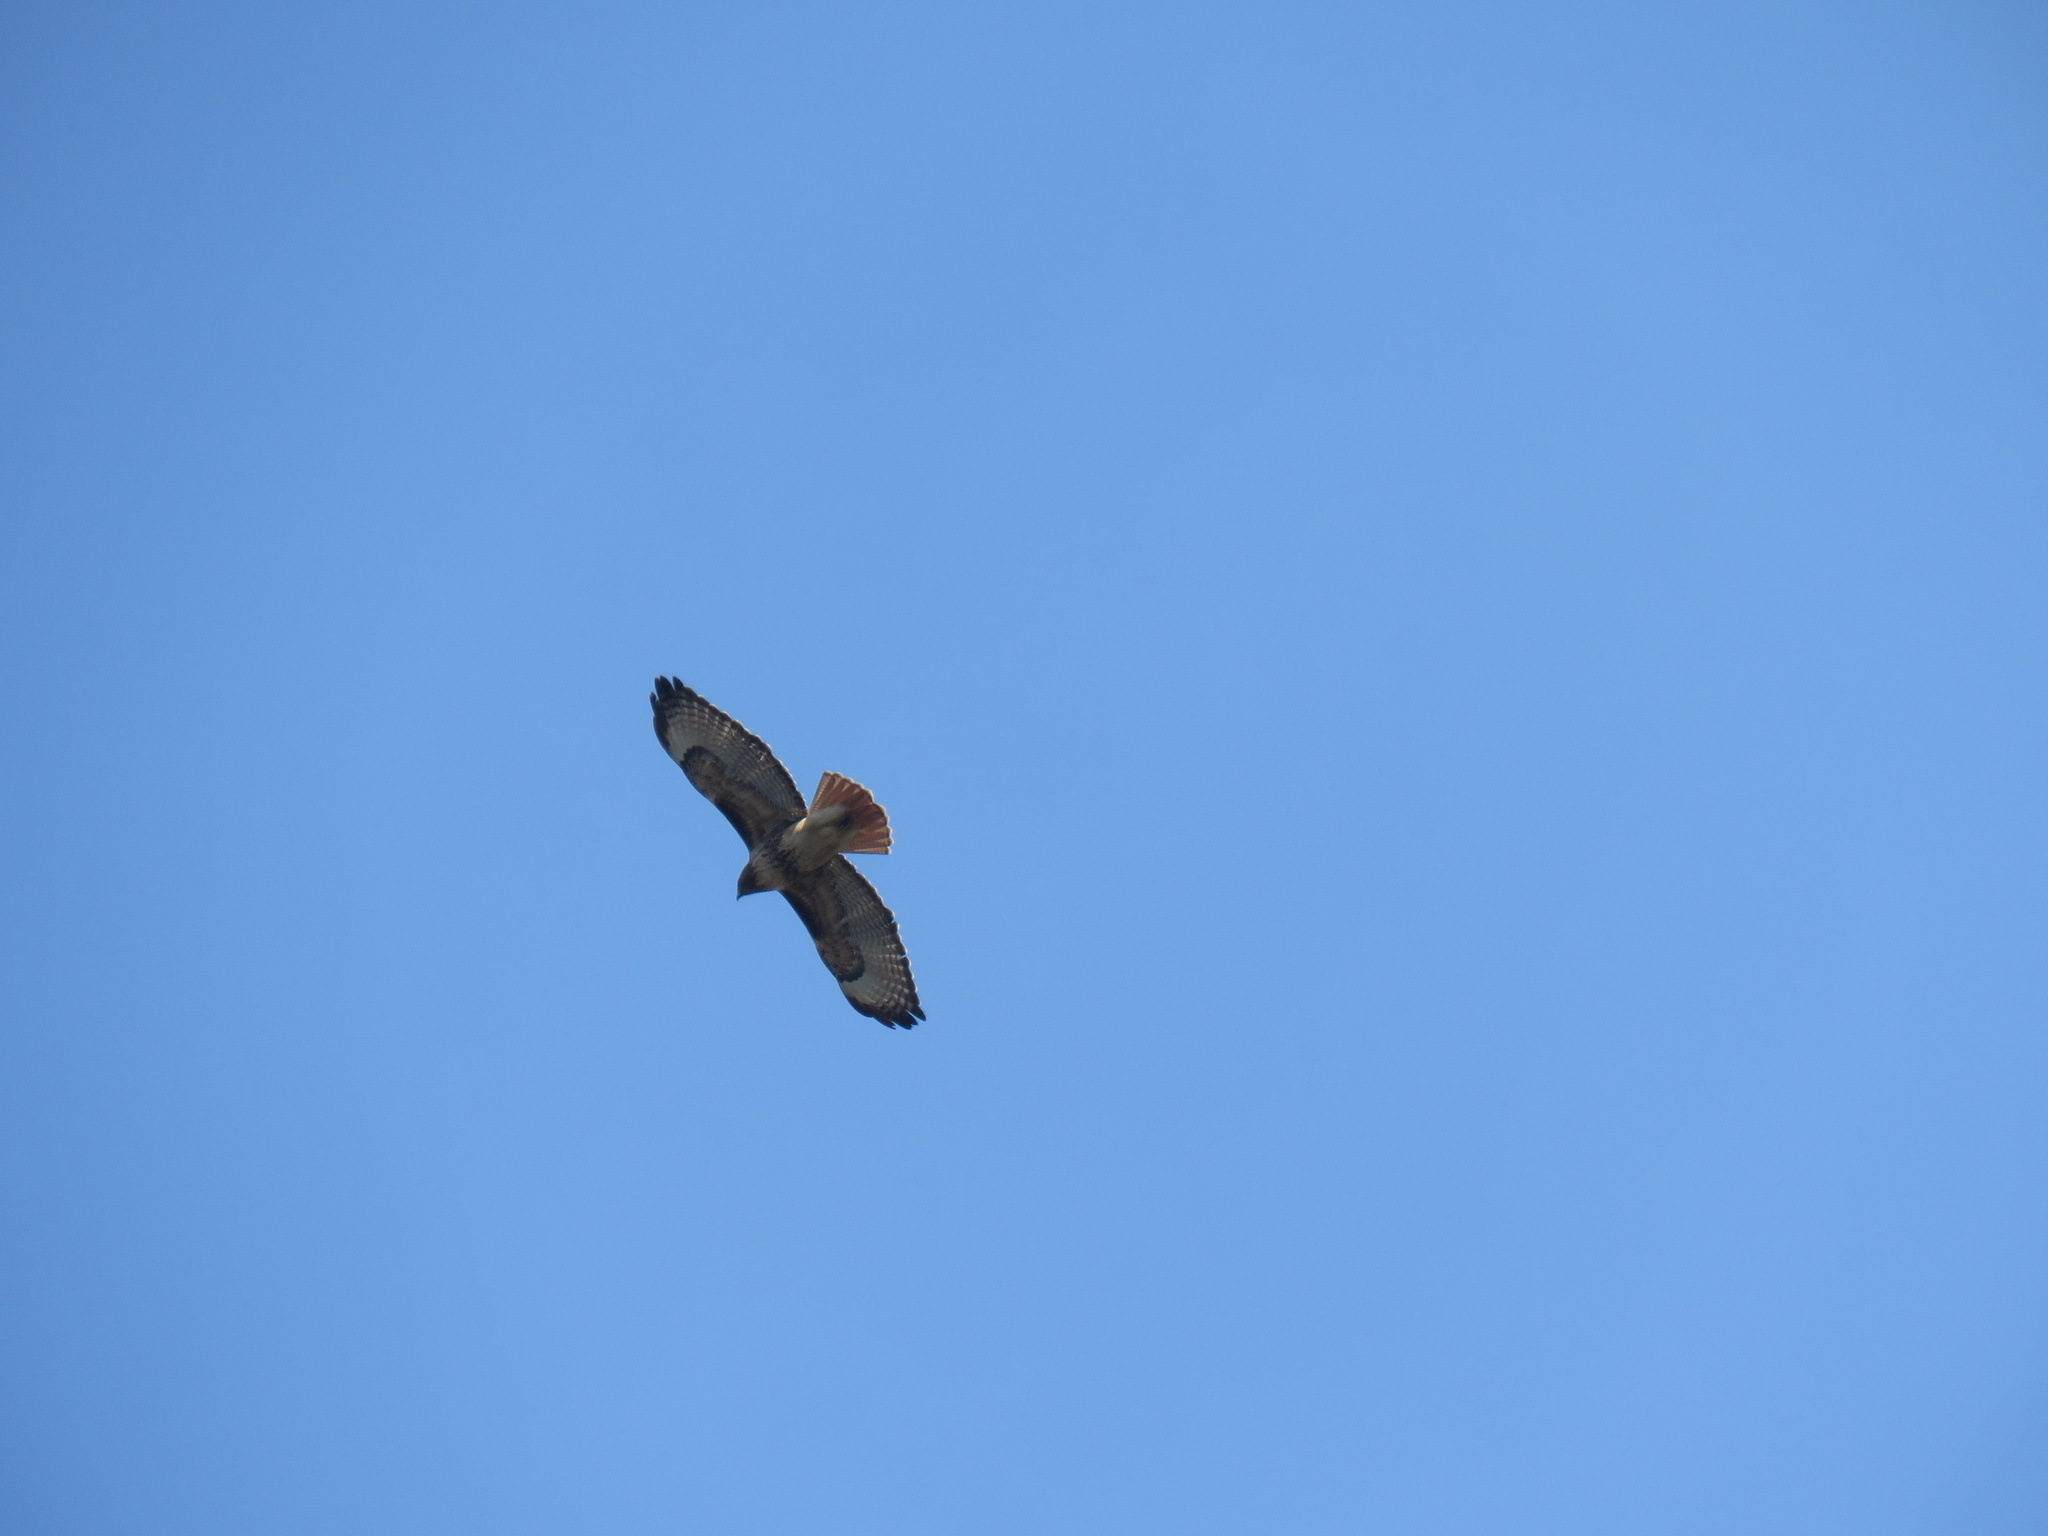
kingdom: Animalia
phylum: Chordata
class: Aves
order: Accipitriformes
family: Accipitridae
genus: Buteo
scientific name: Buteo jamaicensis
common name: Red-tailed hawk
